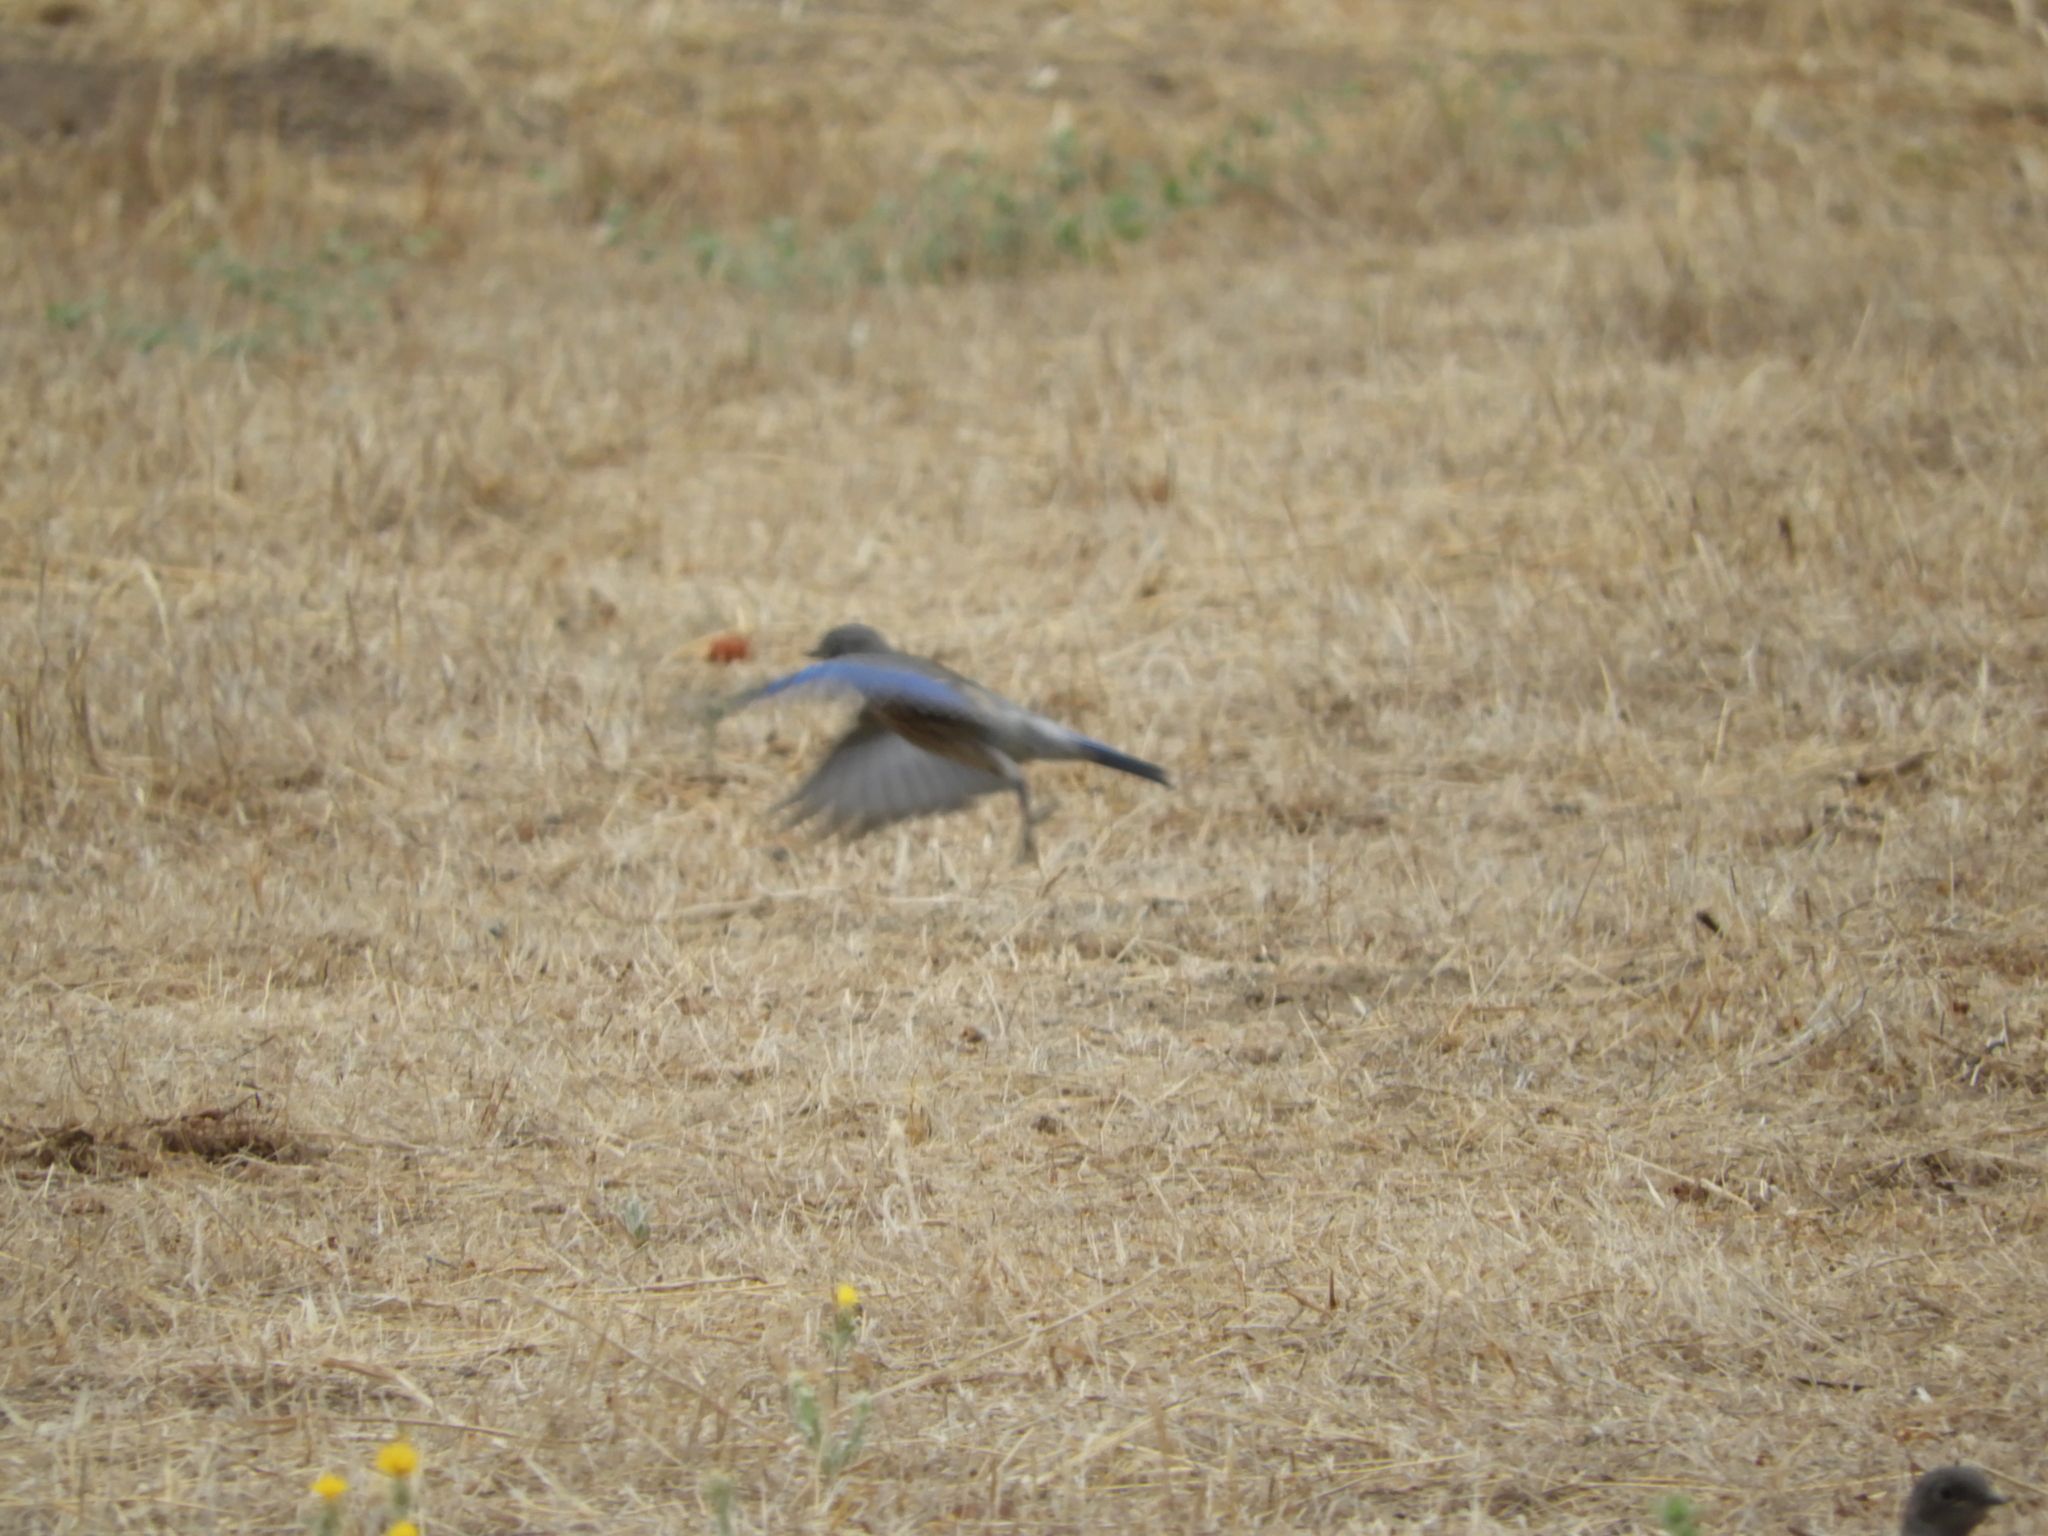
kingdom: Animalia
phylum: Chordata
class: Aves
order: Passeriformes
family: Turdidae
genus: Sialia
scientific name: Sialia mexicana
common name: Western bluebird
